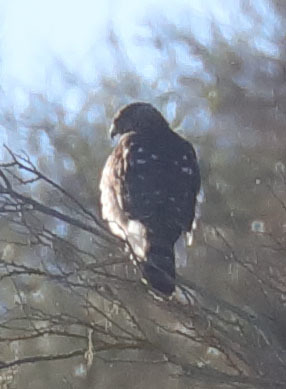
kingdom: Animalia
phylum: Chordata
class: Aves
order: Accipitriformes
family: Accipitridae
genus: Accipiter
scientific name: Accipiter cooperii
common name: Cooper's hawk
